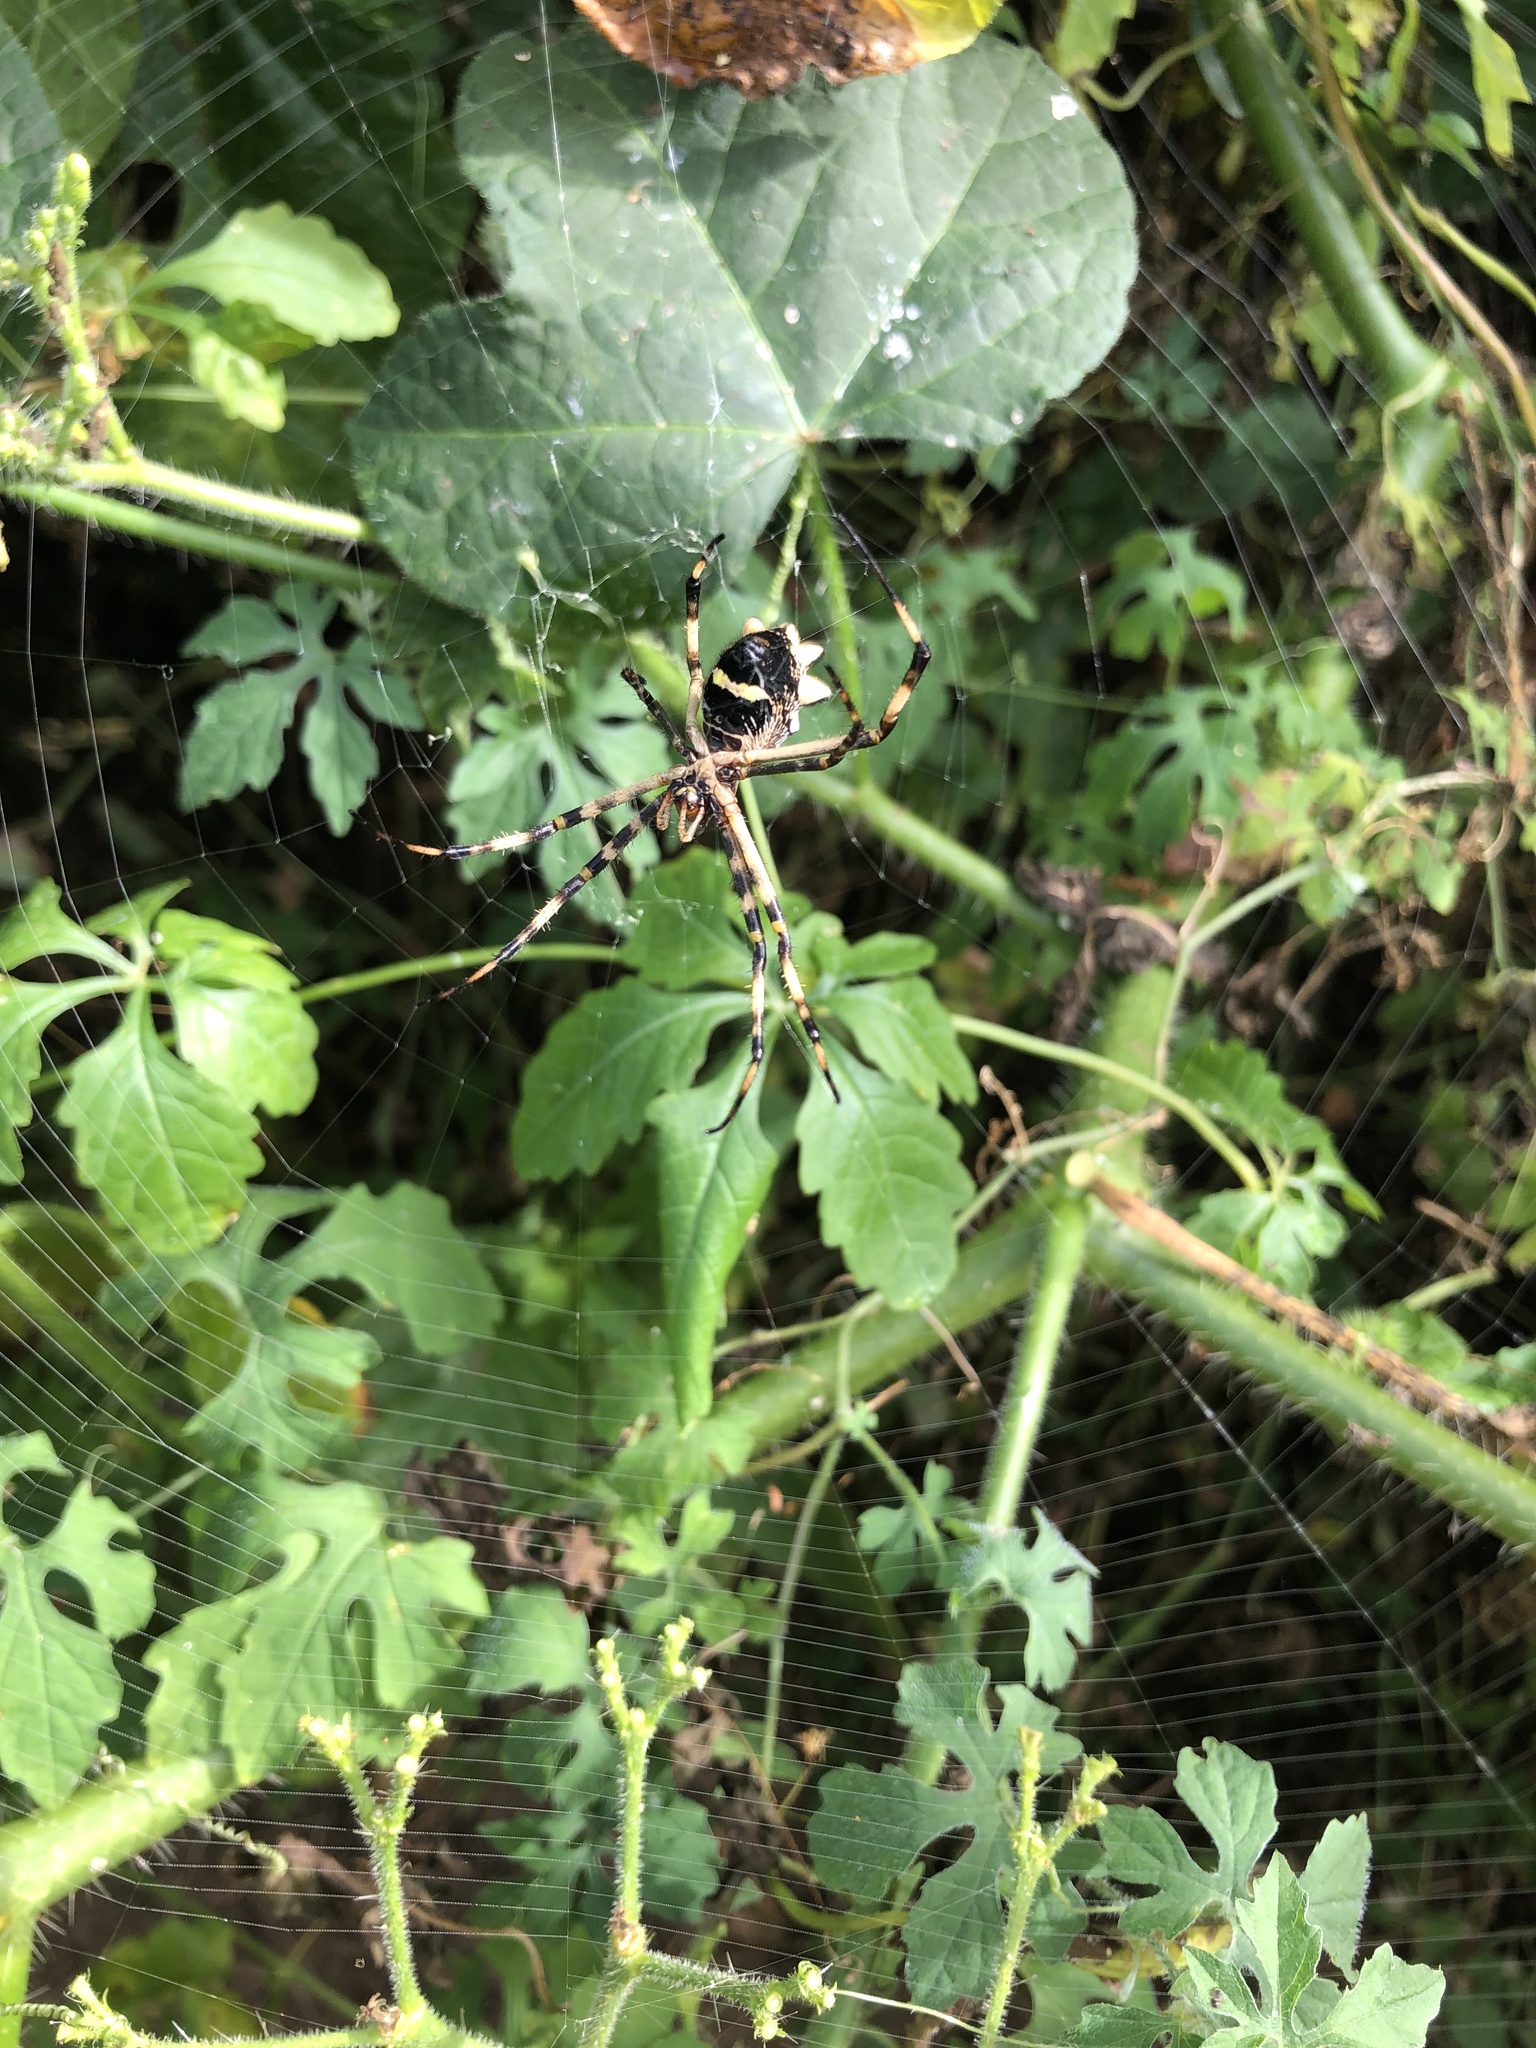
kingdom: Animalia
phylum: Arthropoda
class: Arachnida
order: Araneae
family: Araneidae
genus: Argiope
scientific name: Argiope argentata
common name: Orb weavers
